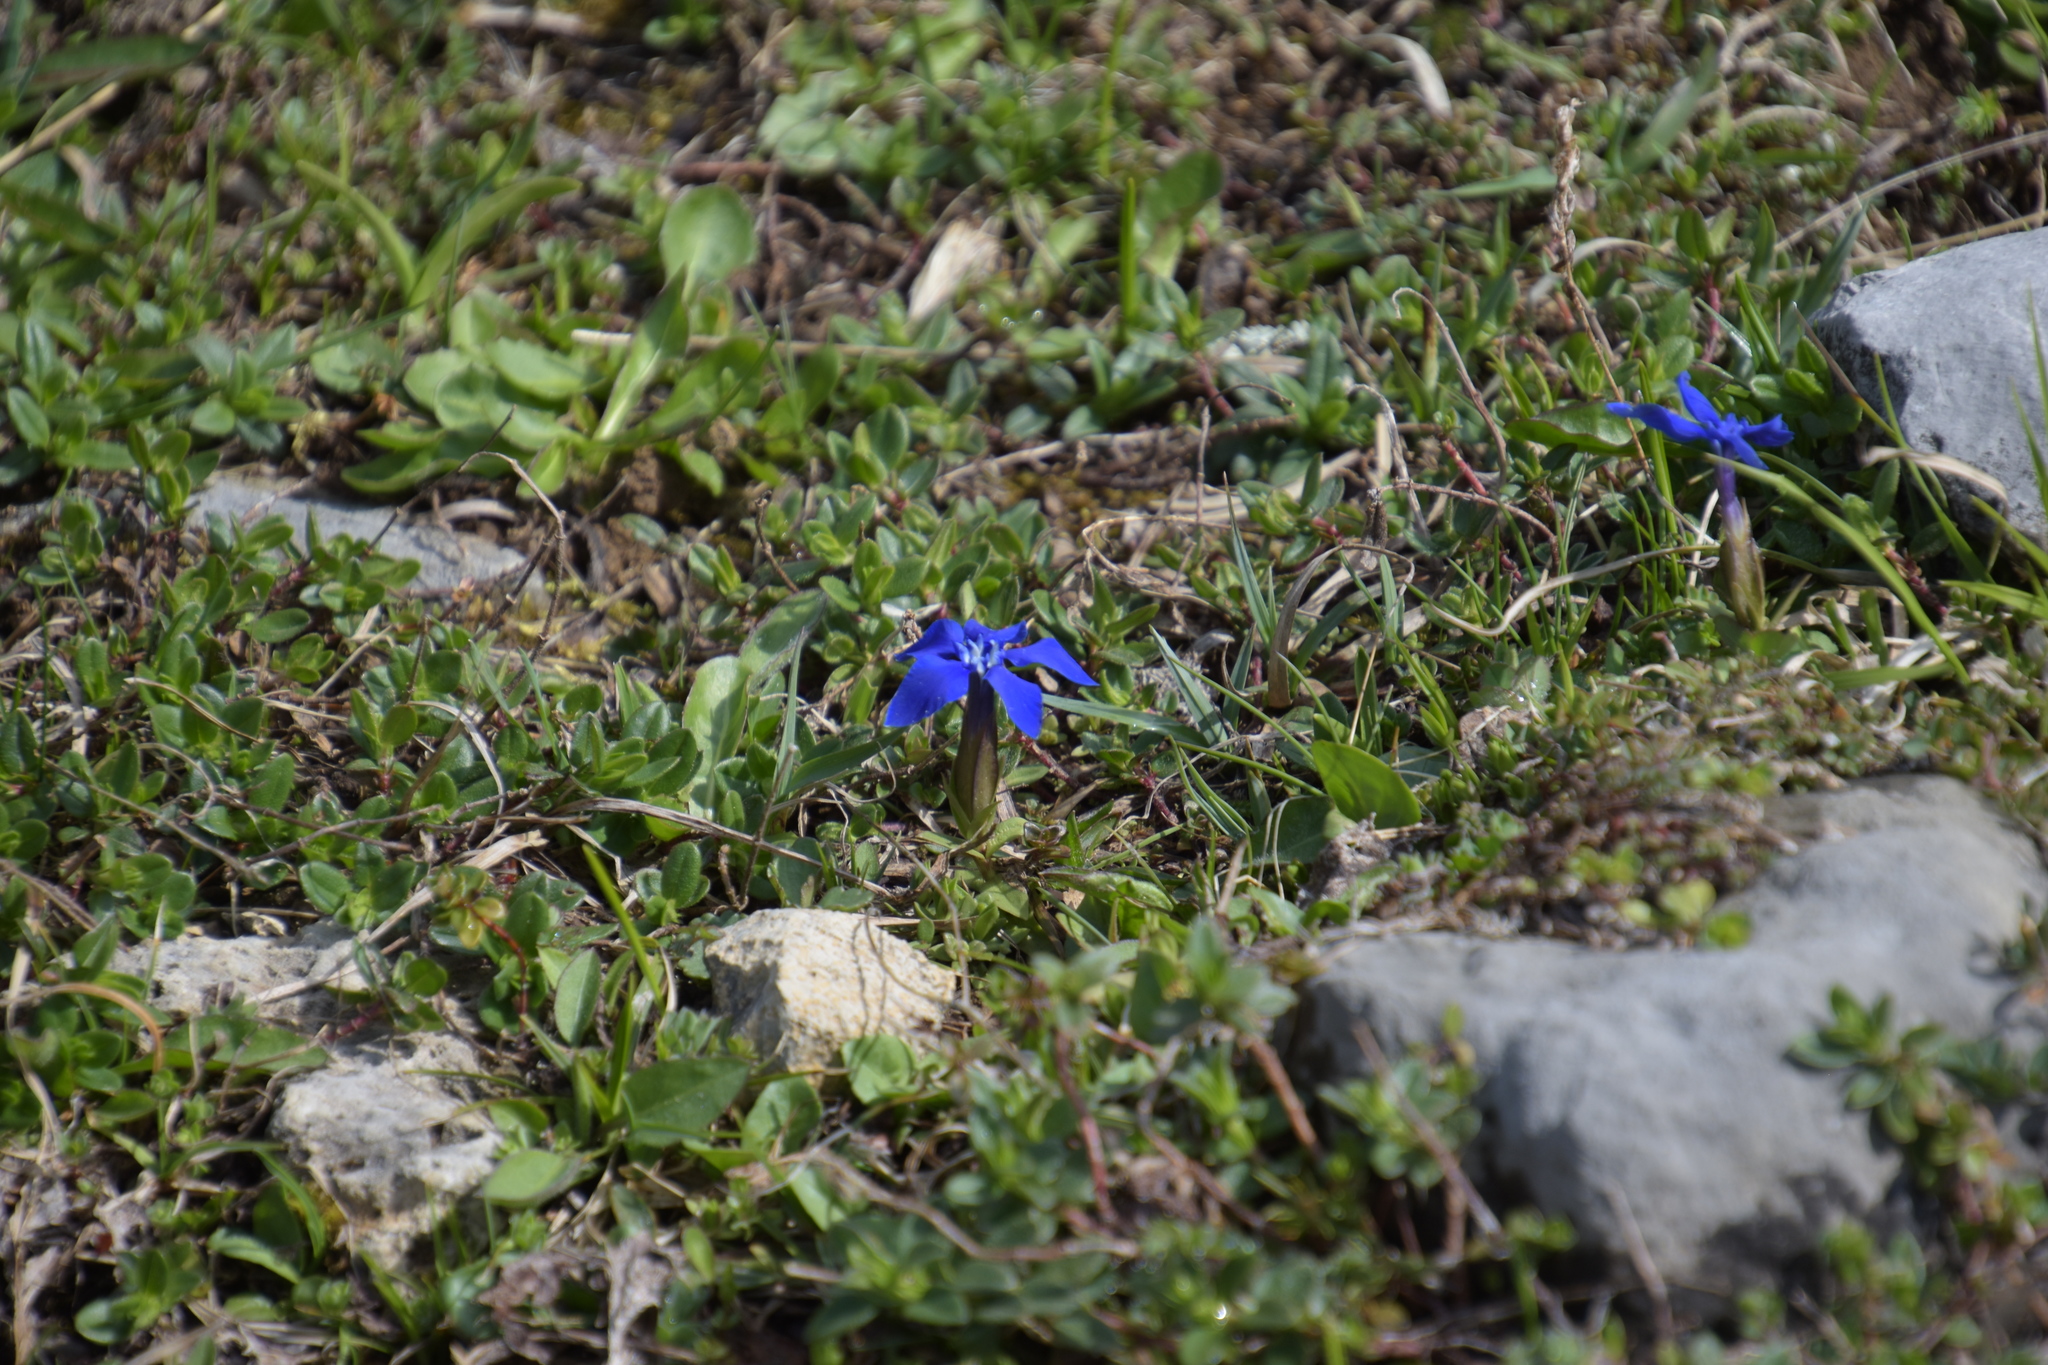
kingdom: Plantae
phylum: Tracheophyta
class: Magnoliopsida
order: Gentianales
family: Gentianaceae
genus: Gentiana
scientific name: Gentiana verna
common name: Spring gentian
